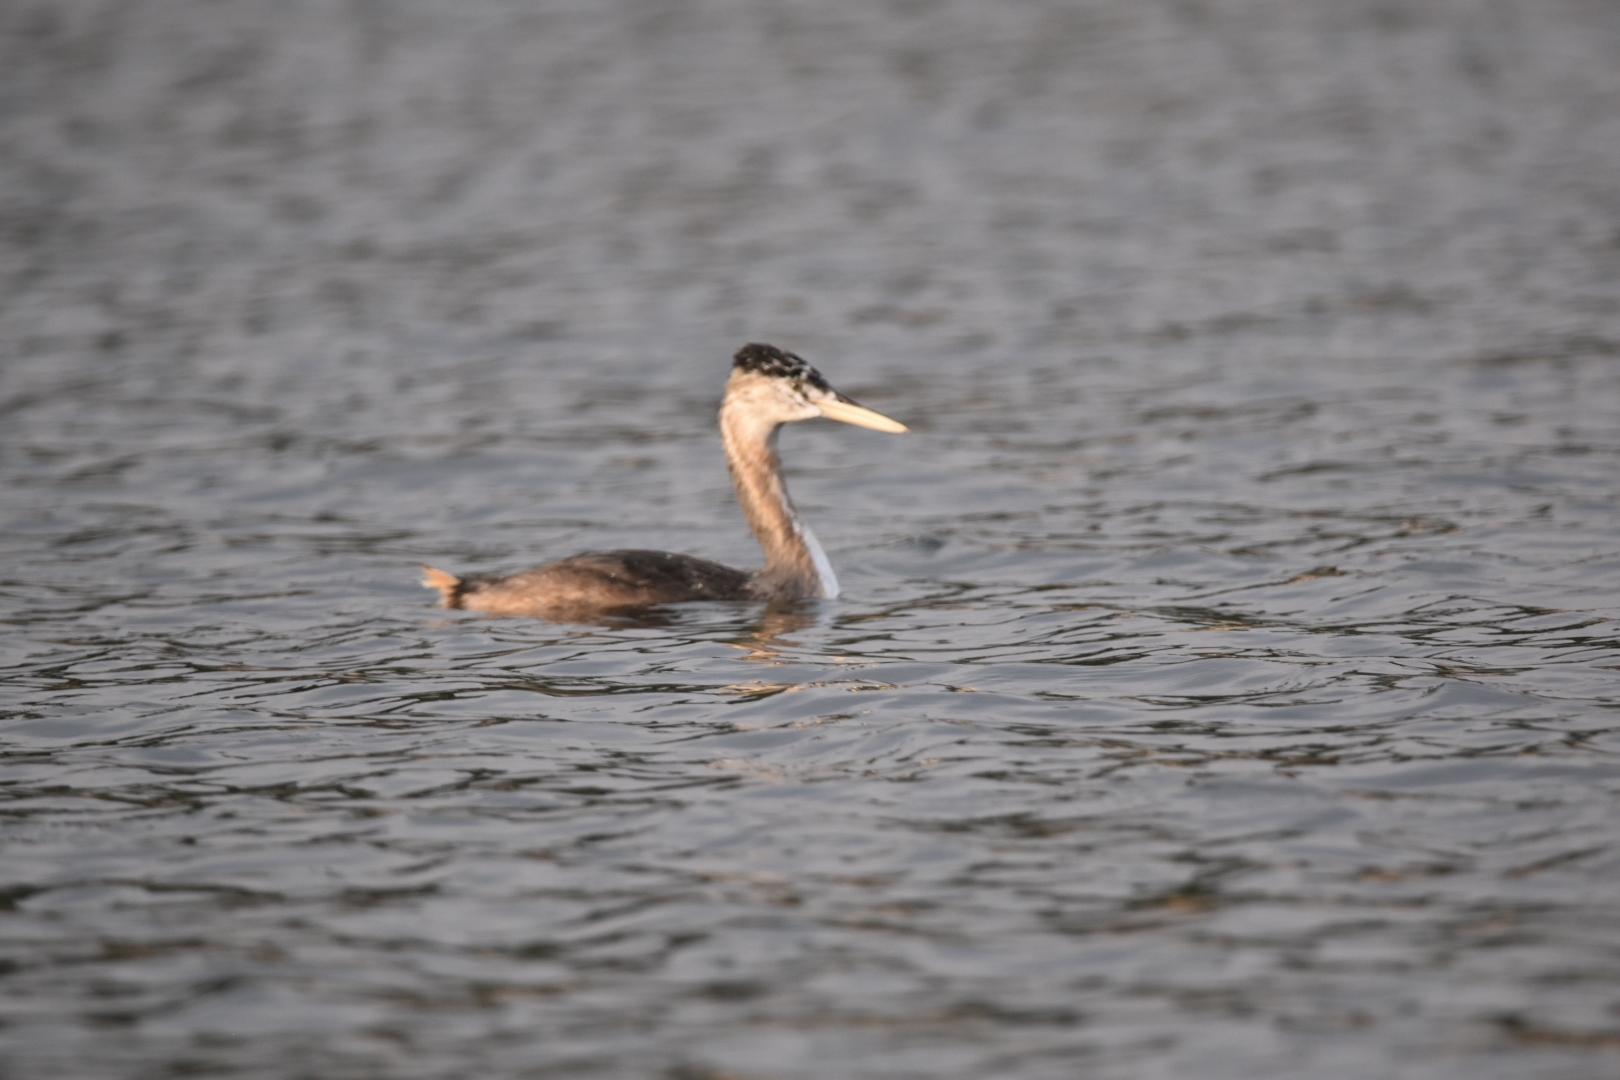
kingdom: Animalia
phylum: Chordata
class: Aves
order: Podicipediformes
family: Podicipedidae
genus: Podiceps
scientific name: Podiceps major
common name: Great grebe
